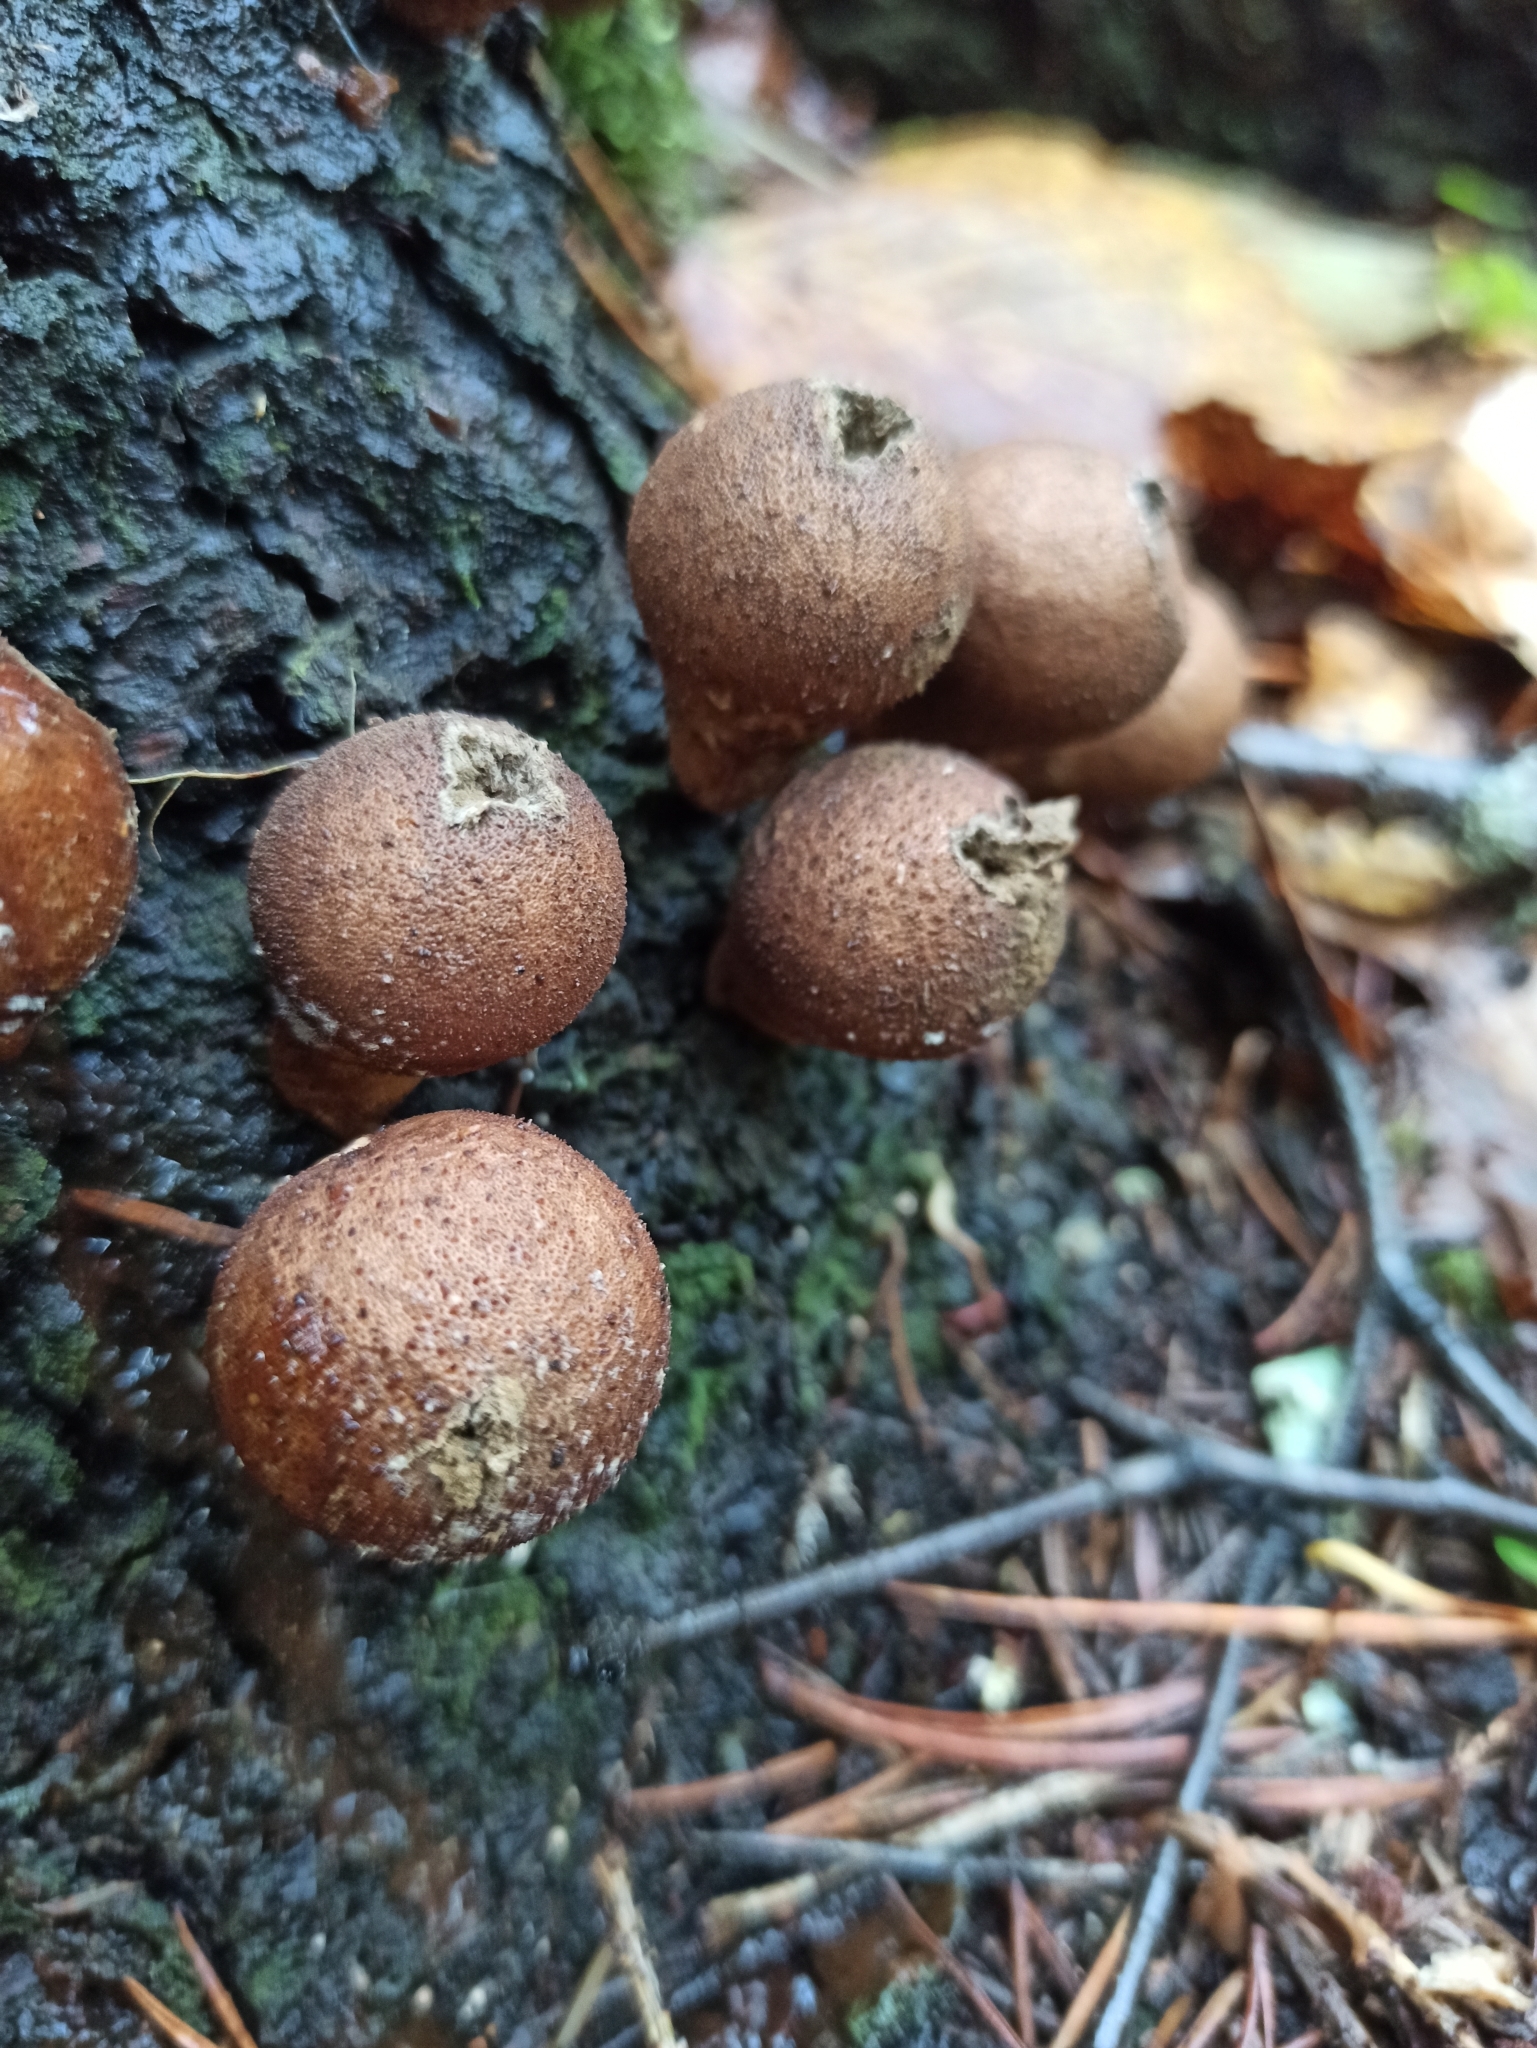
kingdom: Fungi
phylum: Basidiomycota
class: Agaricomycetes
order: Agaricales
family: Lycoperdaceae
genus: Apioperdon
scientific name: Apioperdon pyriforme
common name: Pear-shaped puffball
